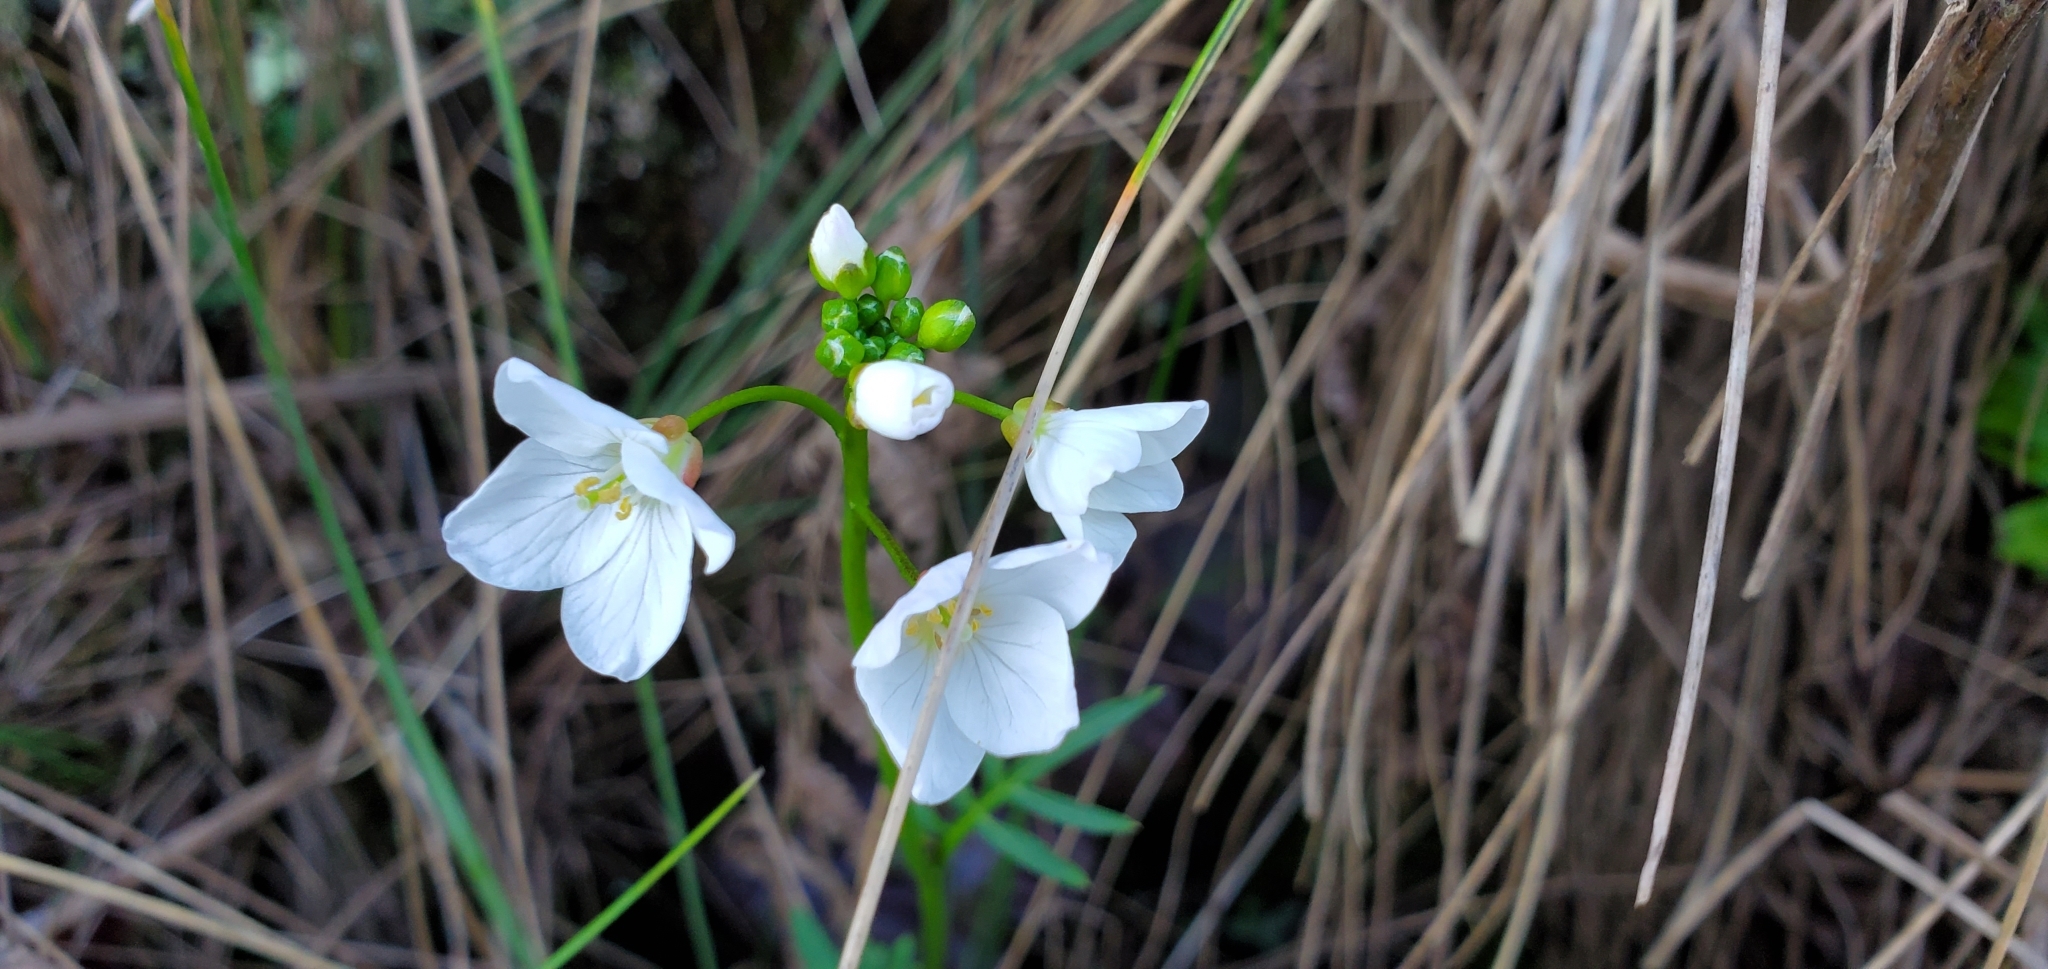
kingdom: Plantae
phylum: Tracheophyta
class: Magnoliopsida
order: Brassicales
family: Brassicaceae
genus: Cardamine
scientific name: Cardamine californica
